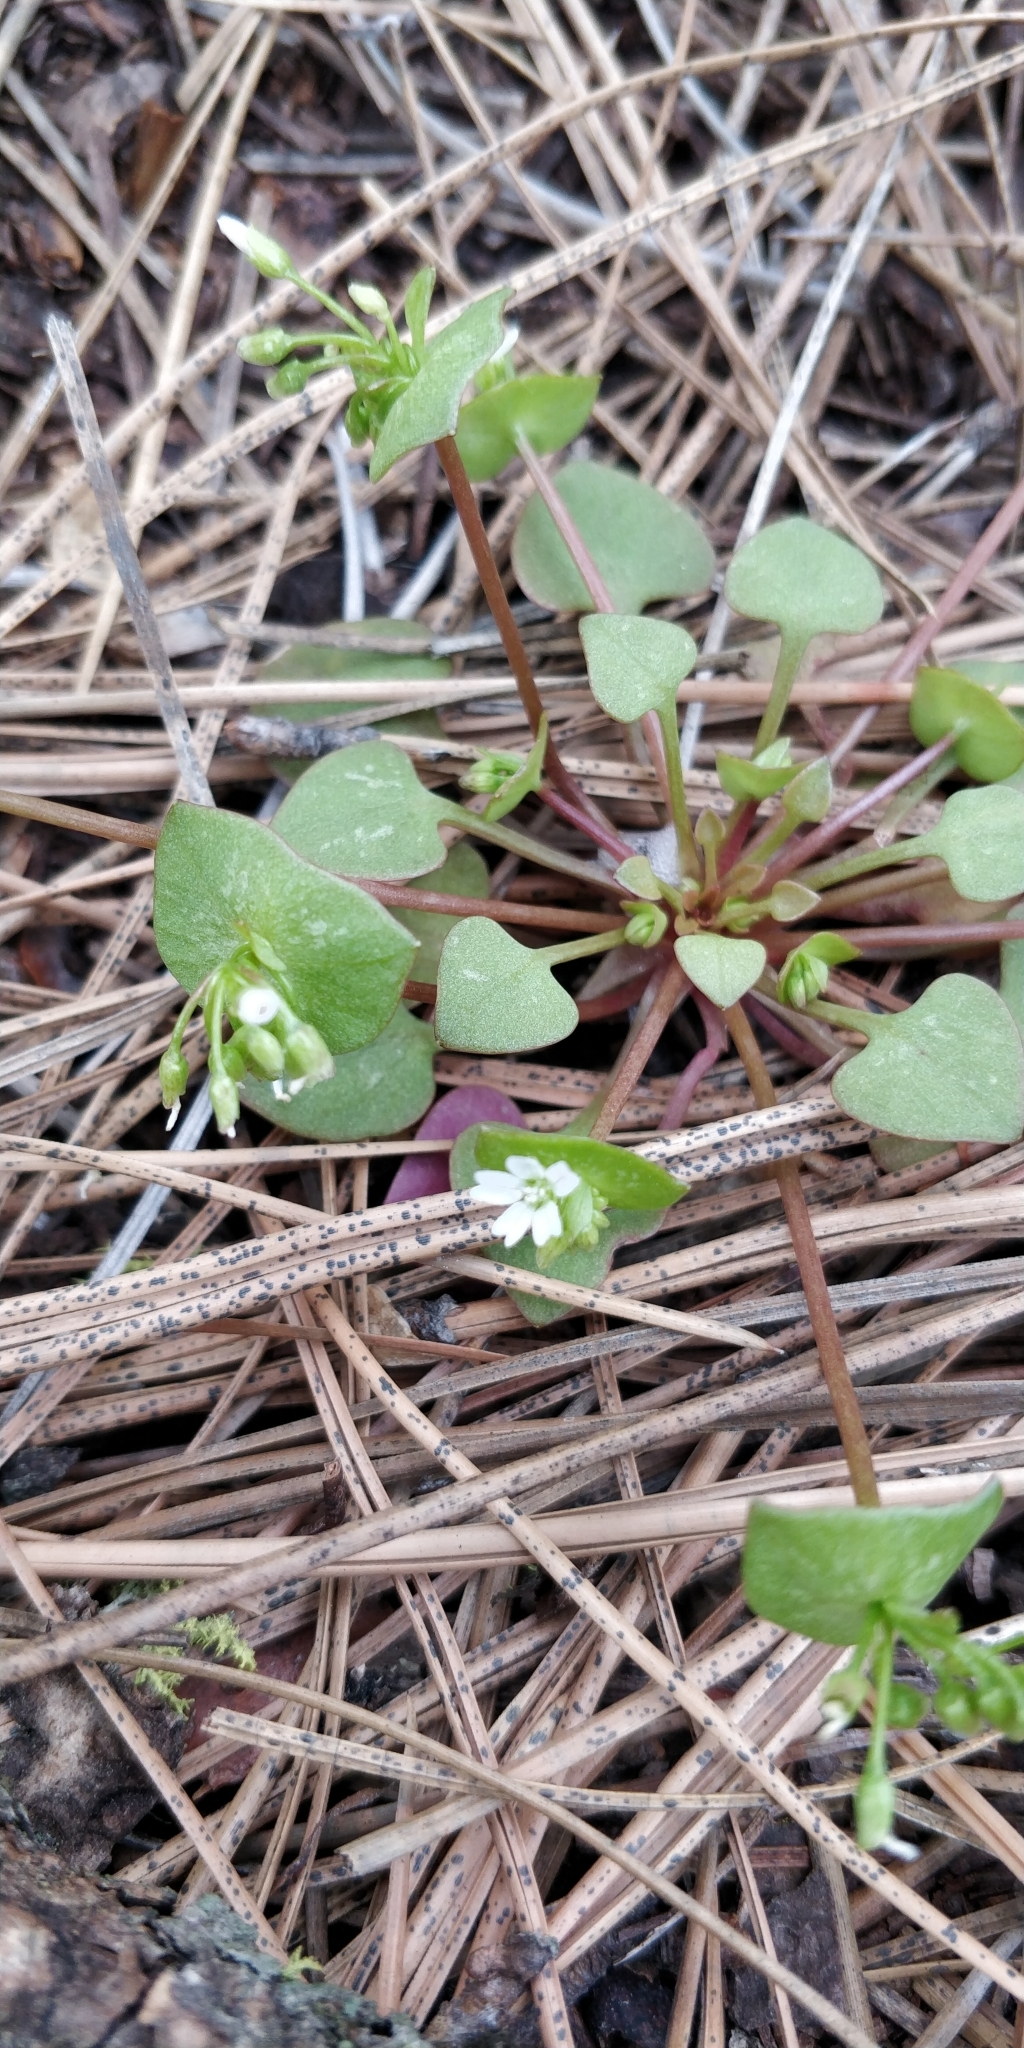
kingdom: Plantae
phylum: Tracheophyta
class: Magnoliopsida
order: Caryophyllales
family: Montiaceae
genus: Claytonia
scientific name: Claytonia rubra
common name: Erubescent miner's-lettuce
